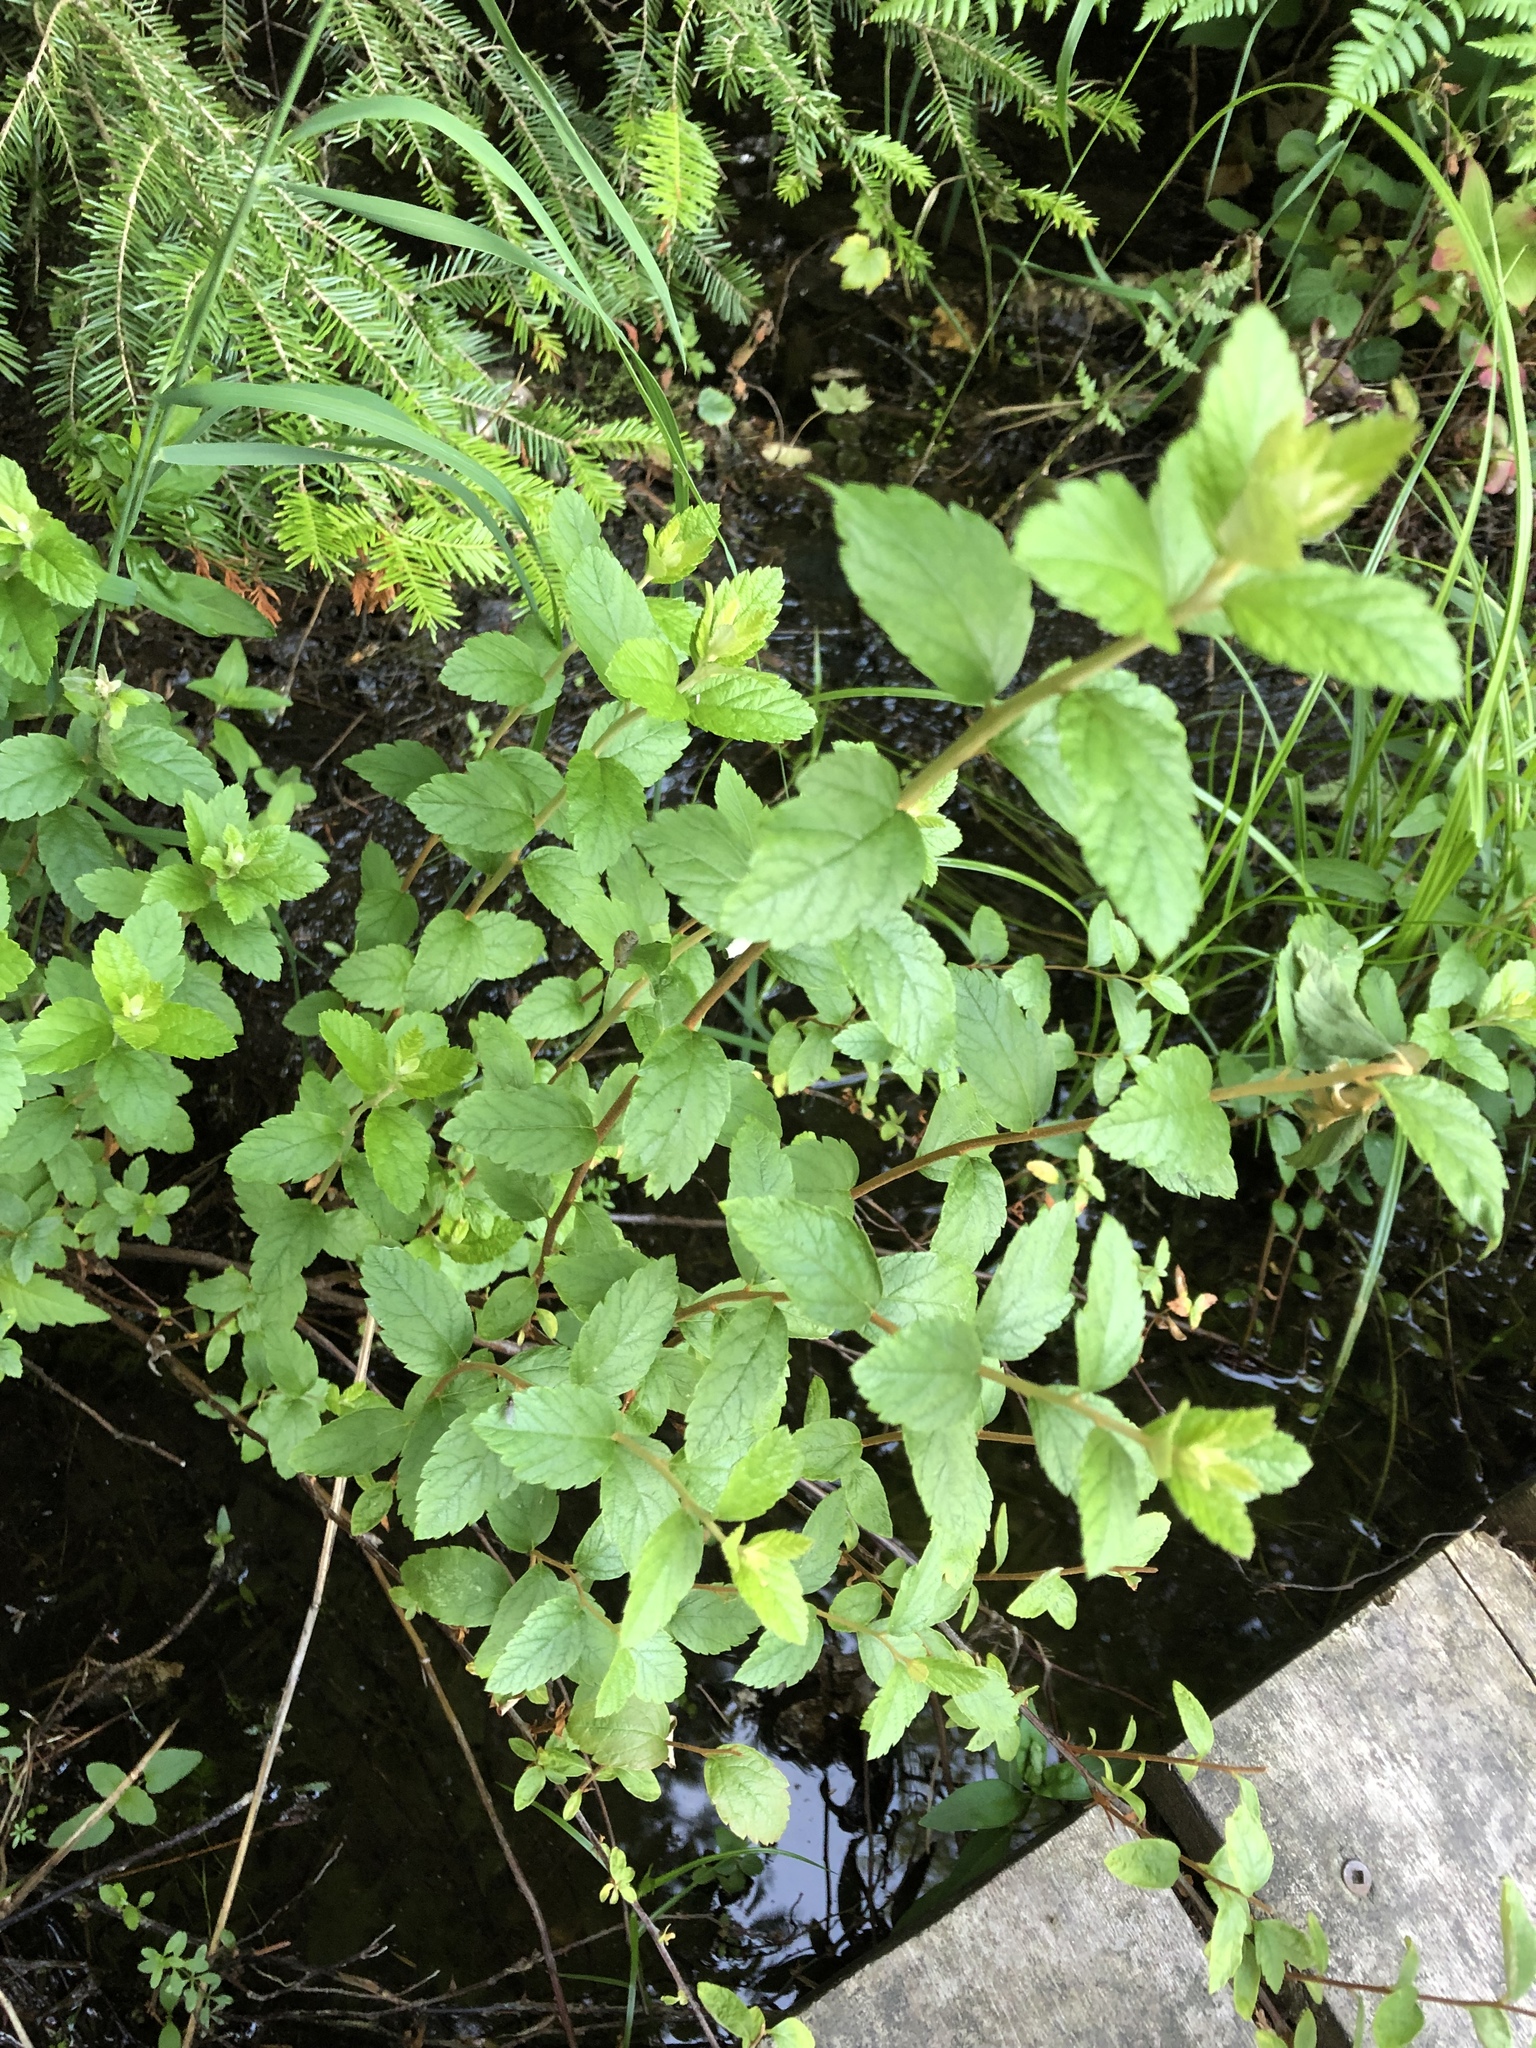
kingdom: Plantae
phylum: Tracheophyta
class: Magnoliopsida
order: Rosales
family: Rosaceae
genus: Spiraea
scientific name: Spiraea tomentosa
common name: Hardhack
